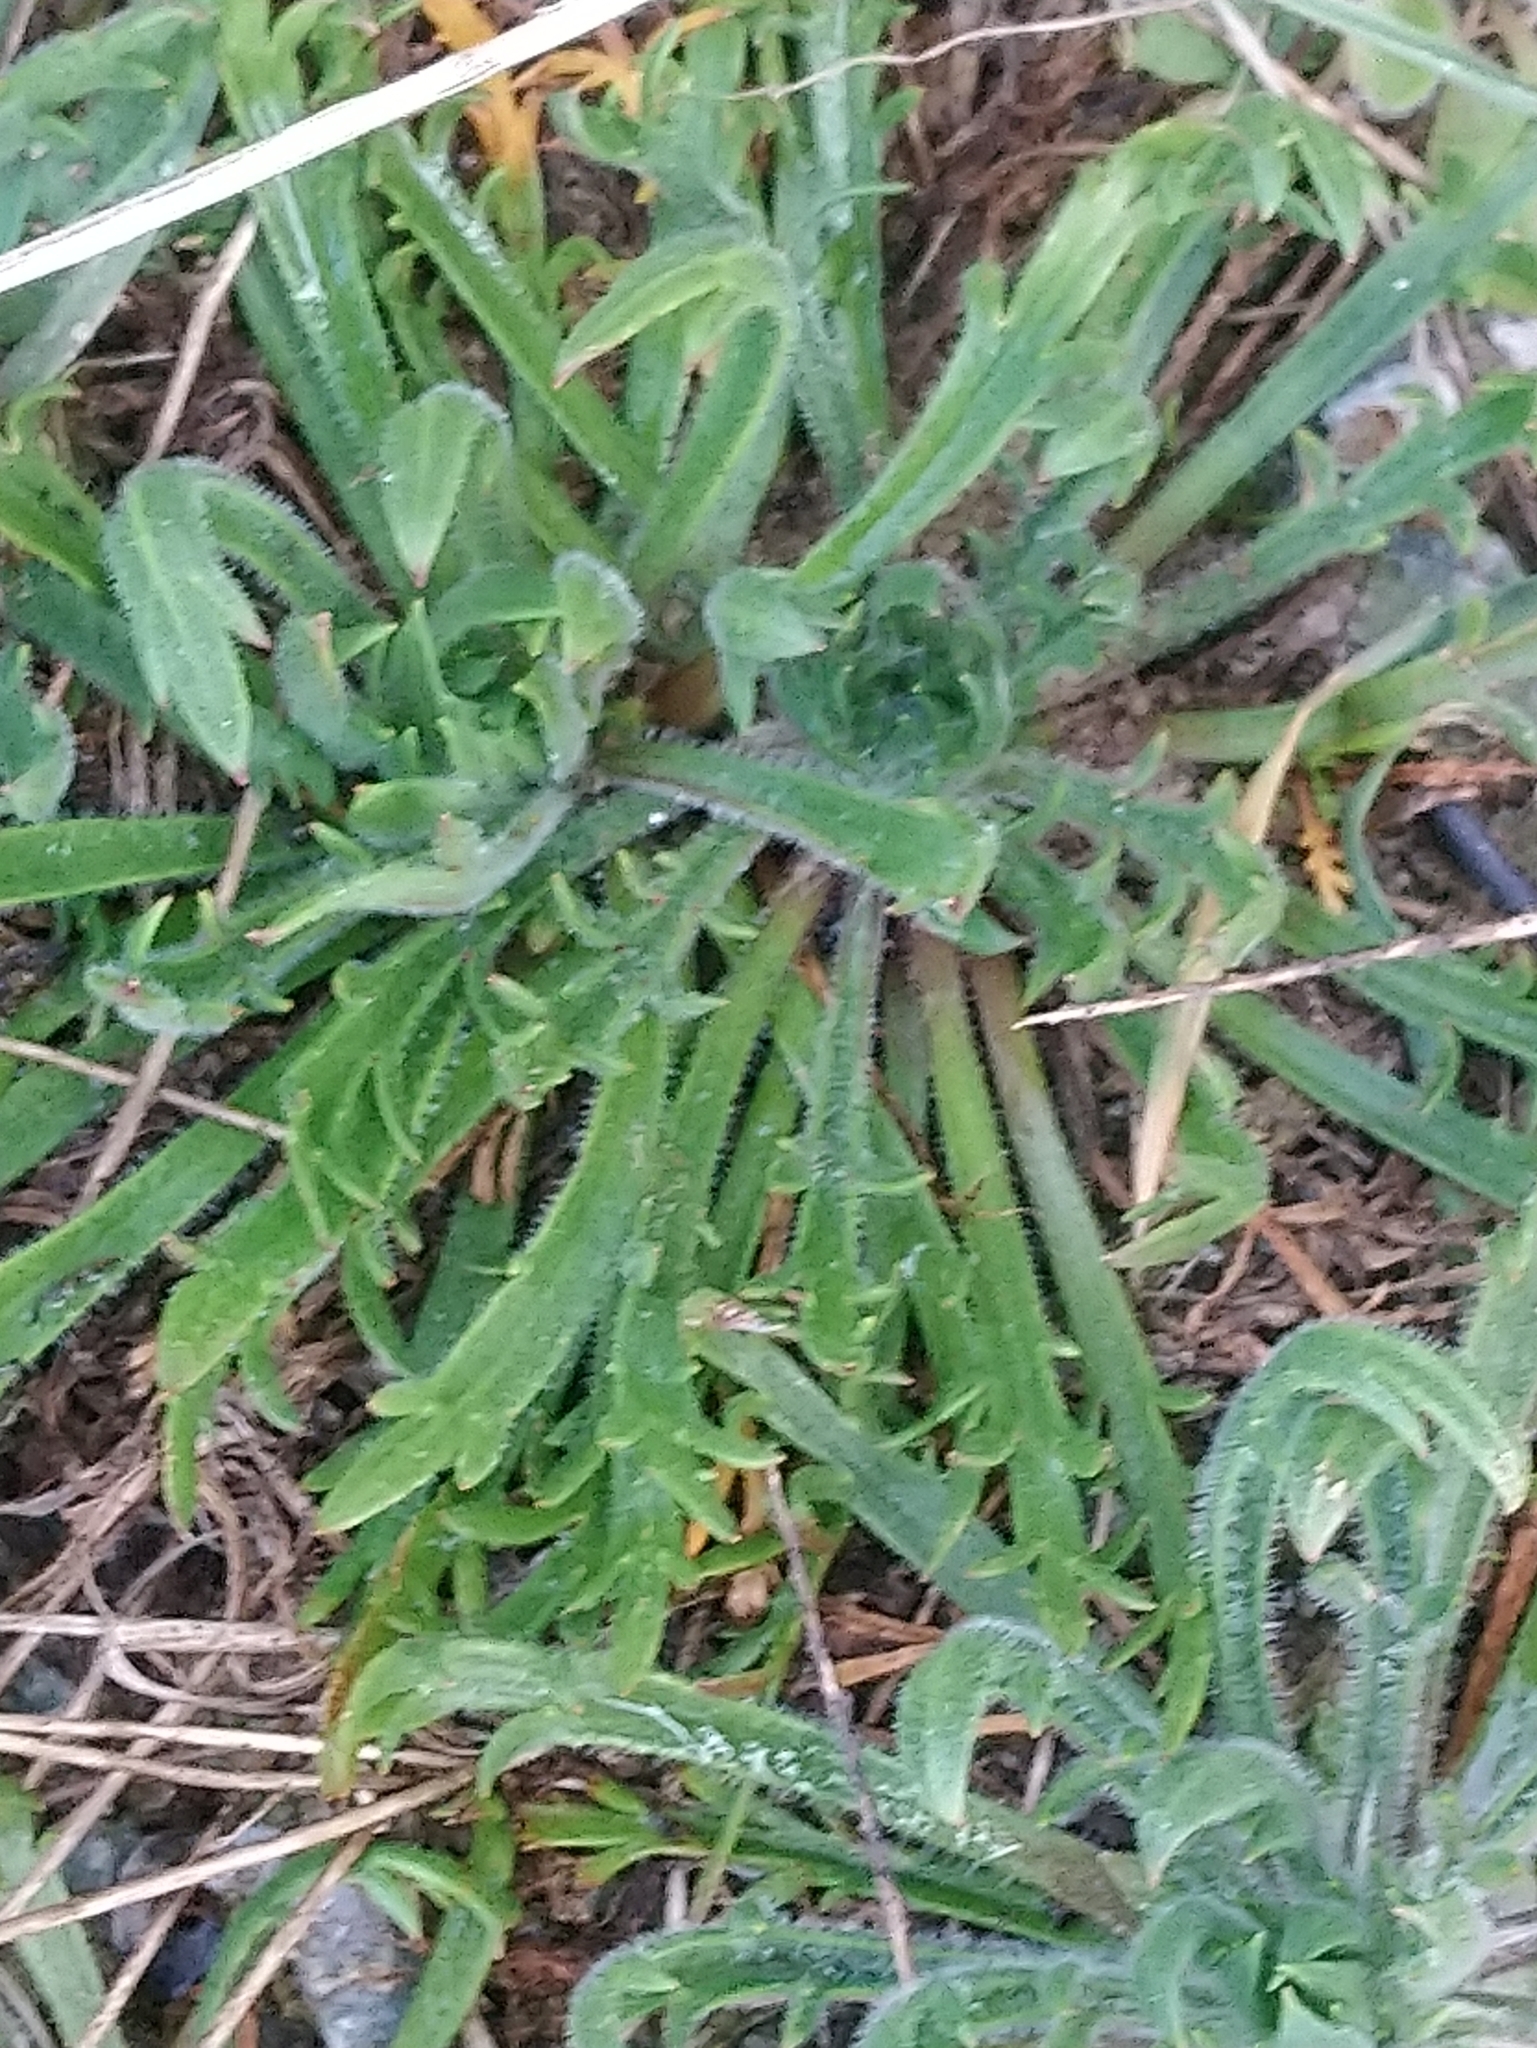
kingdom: Plantae
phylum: Tracheophyta
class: Magnoliopsida
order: Lamiales
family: Plantaginaceae
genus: Plantago
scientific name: Plantago coronopus
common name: Buck's-horn plantain
